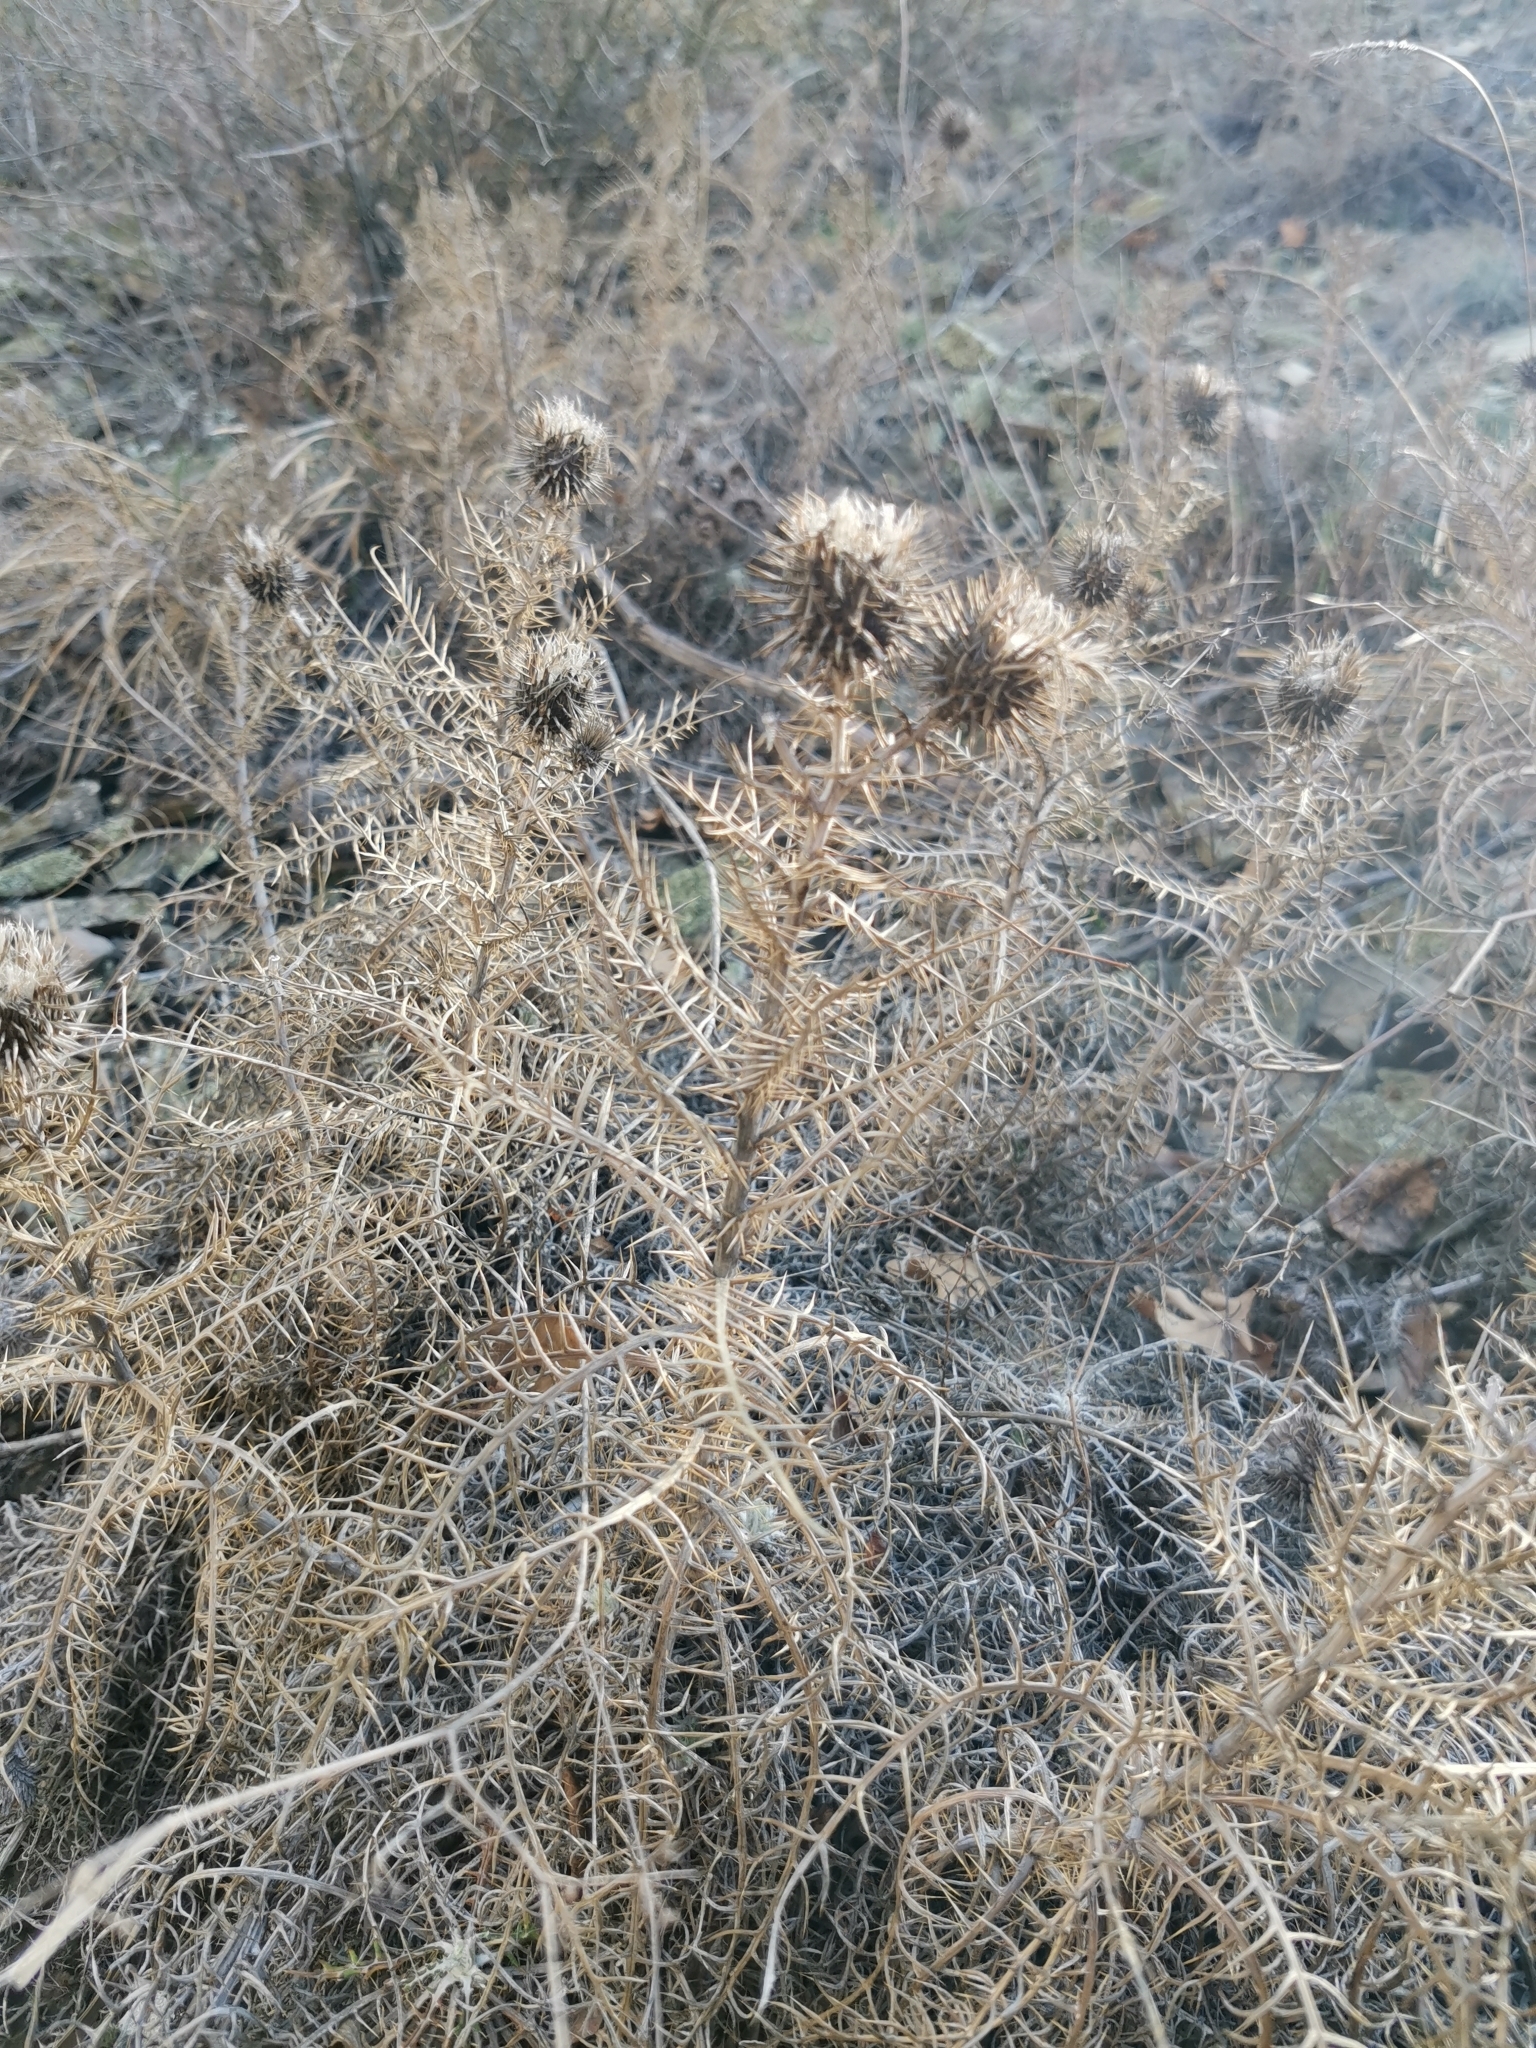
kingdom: Plantae
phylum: Tracheophyta
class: Magnoliopsida
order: Asterales
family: Asteraceae
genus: Ptilostemon
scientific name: Ptilostemon echinocephalus
